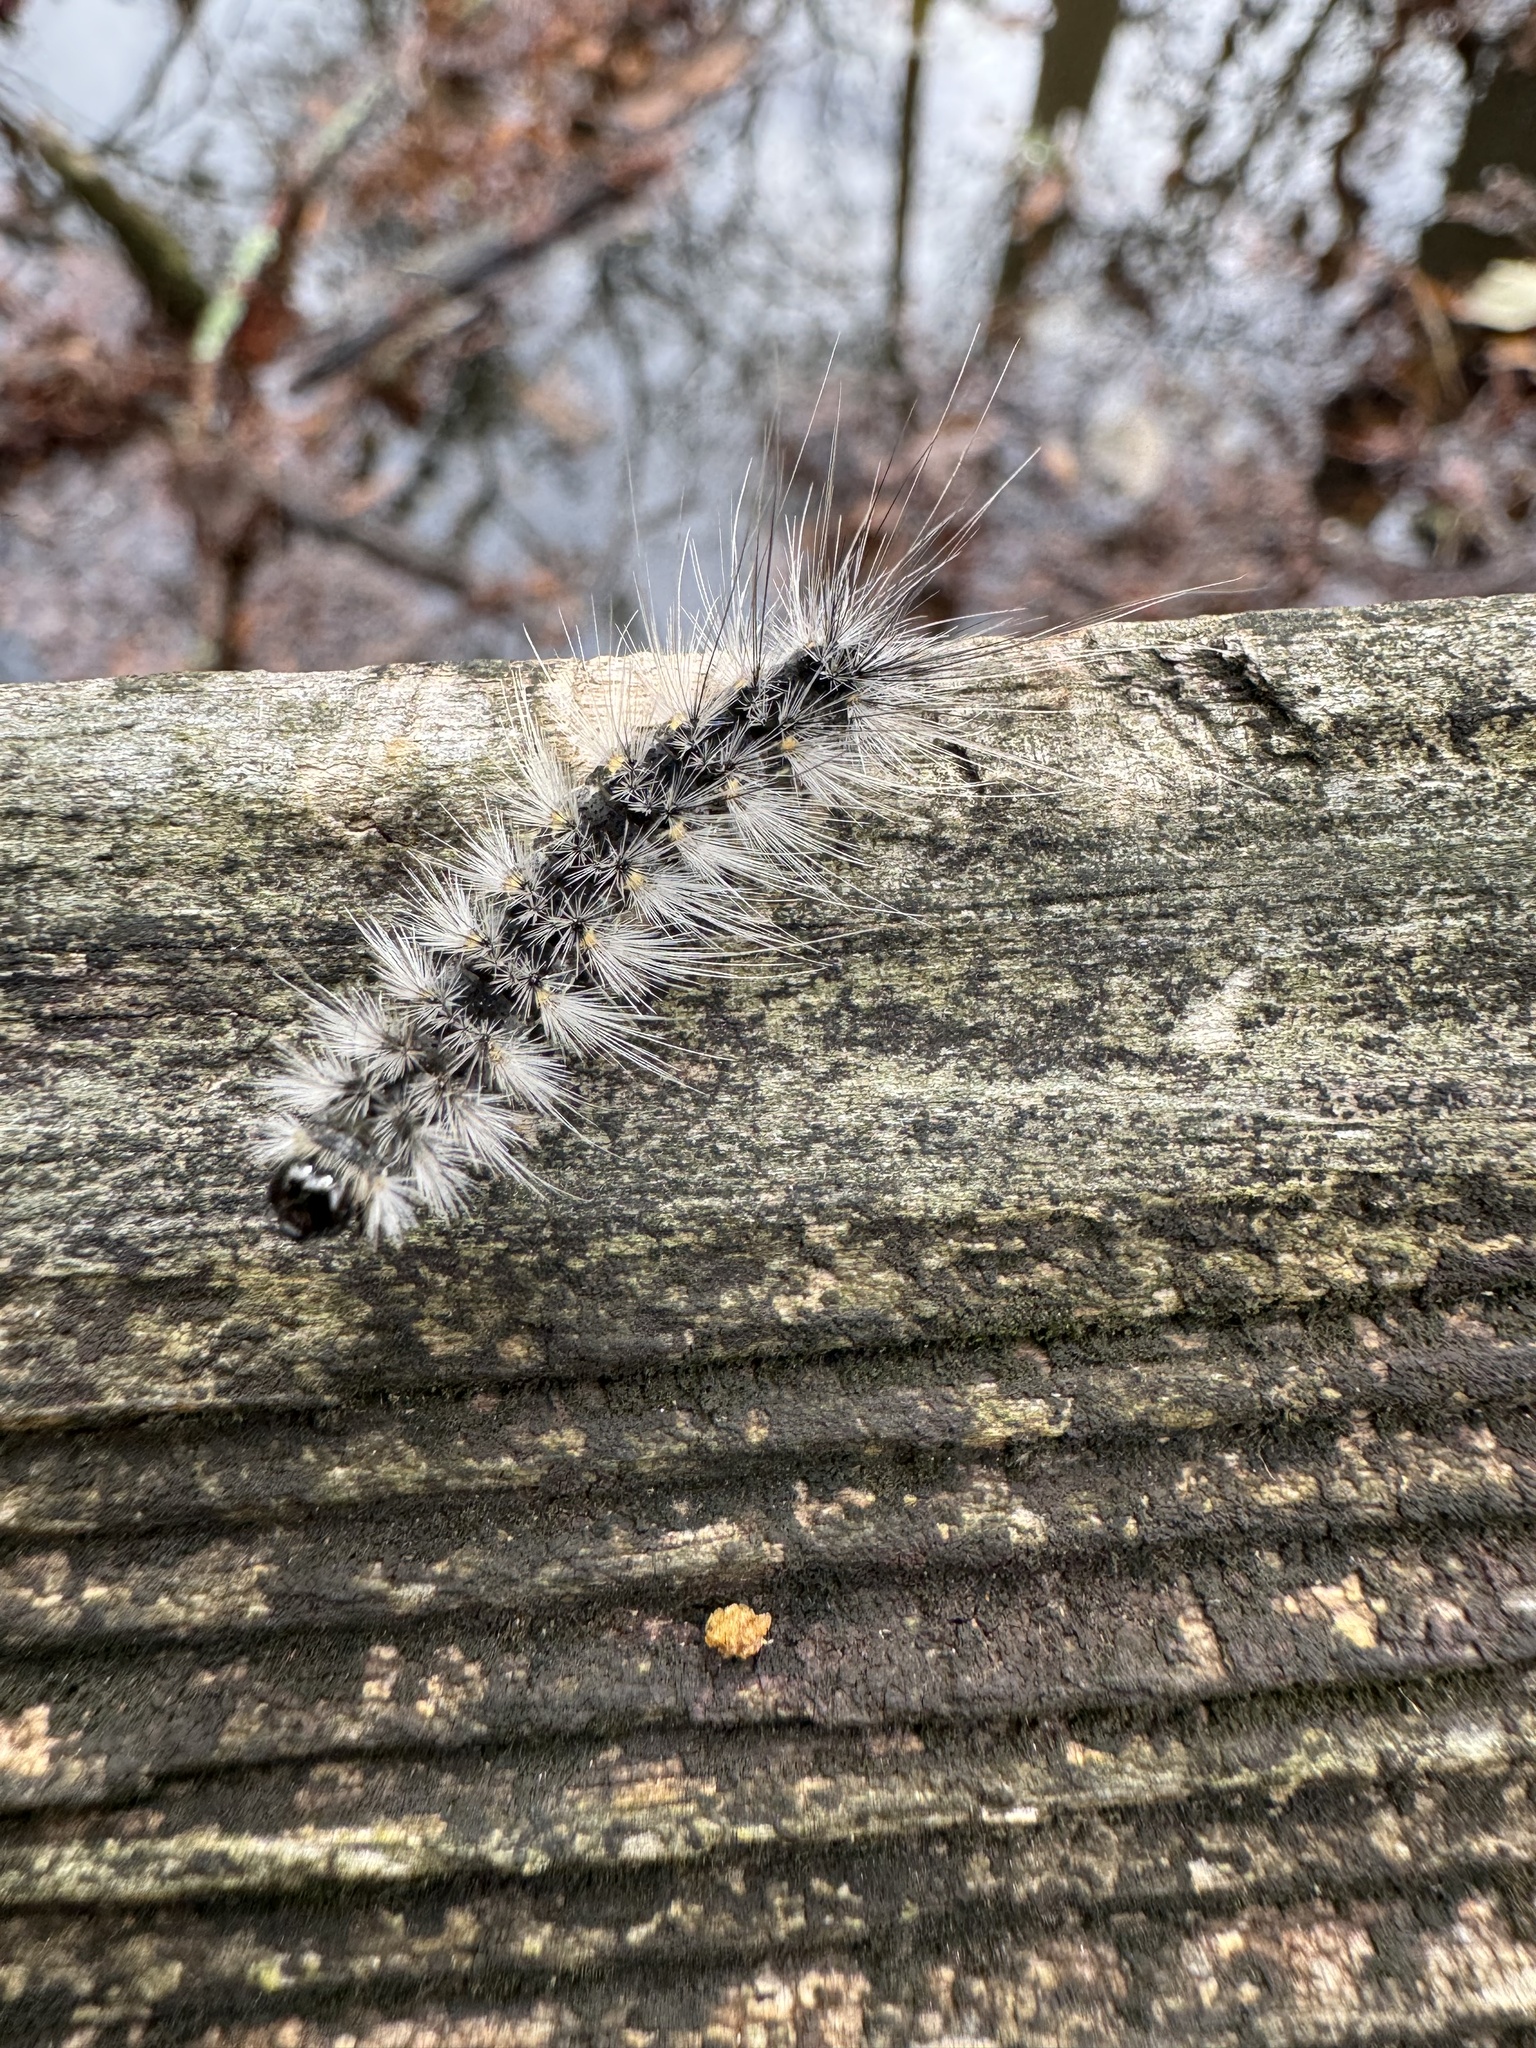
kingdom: Animalia
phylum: Arthropoda
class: Insecta
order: Lepidoptera
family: Erebidae
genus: Hyphantria
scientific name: Hyphantria cunea
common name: American white moth
